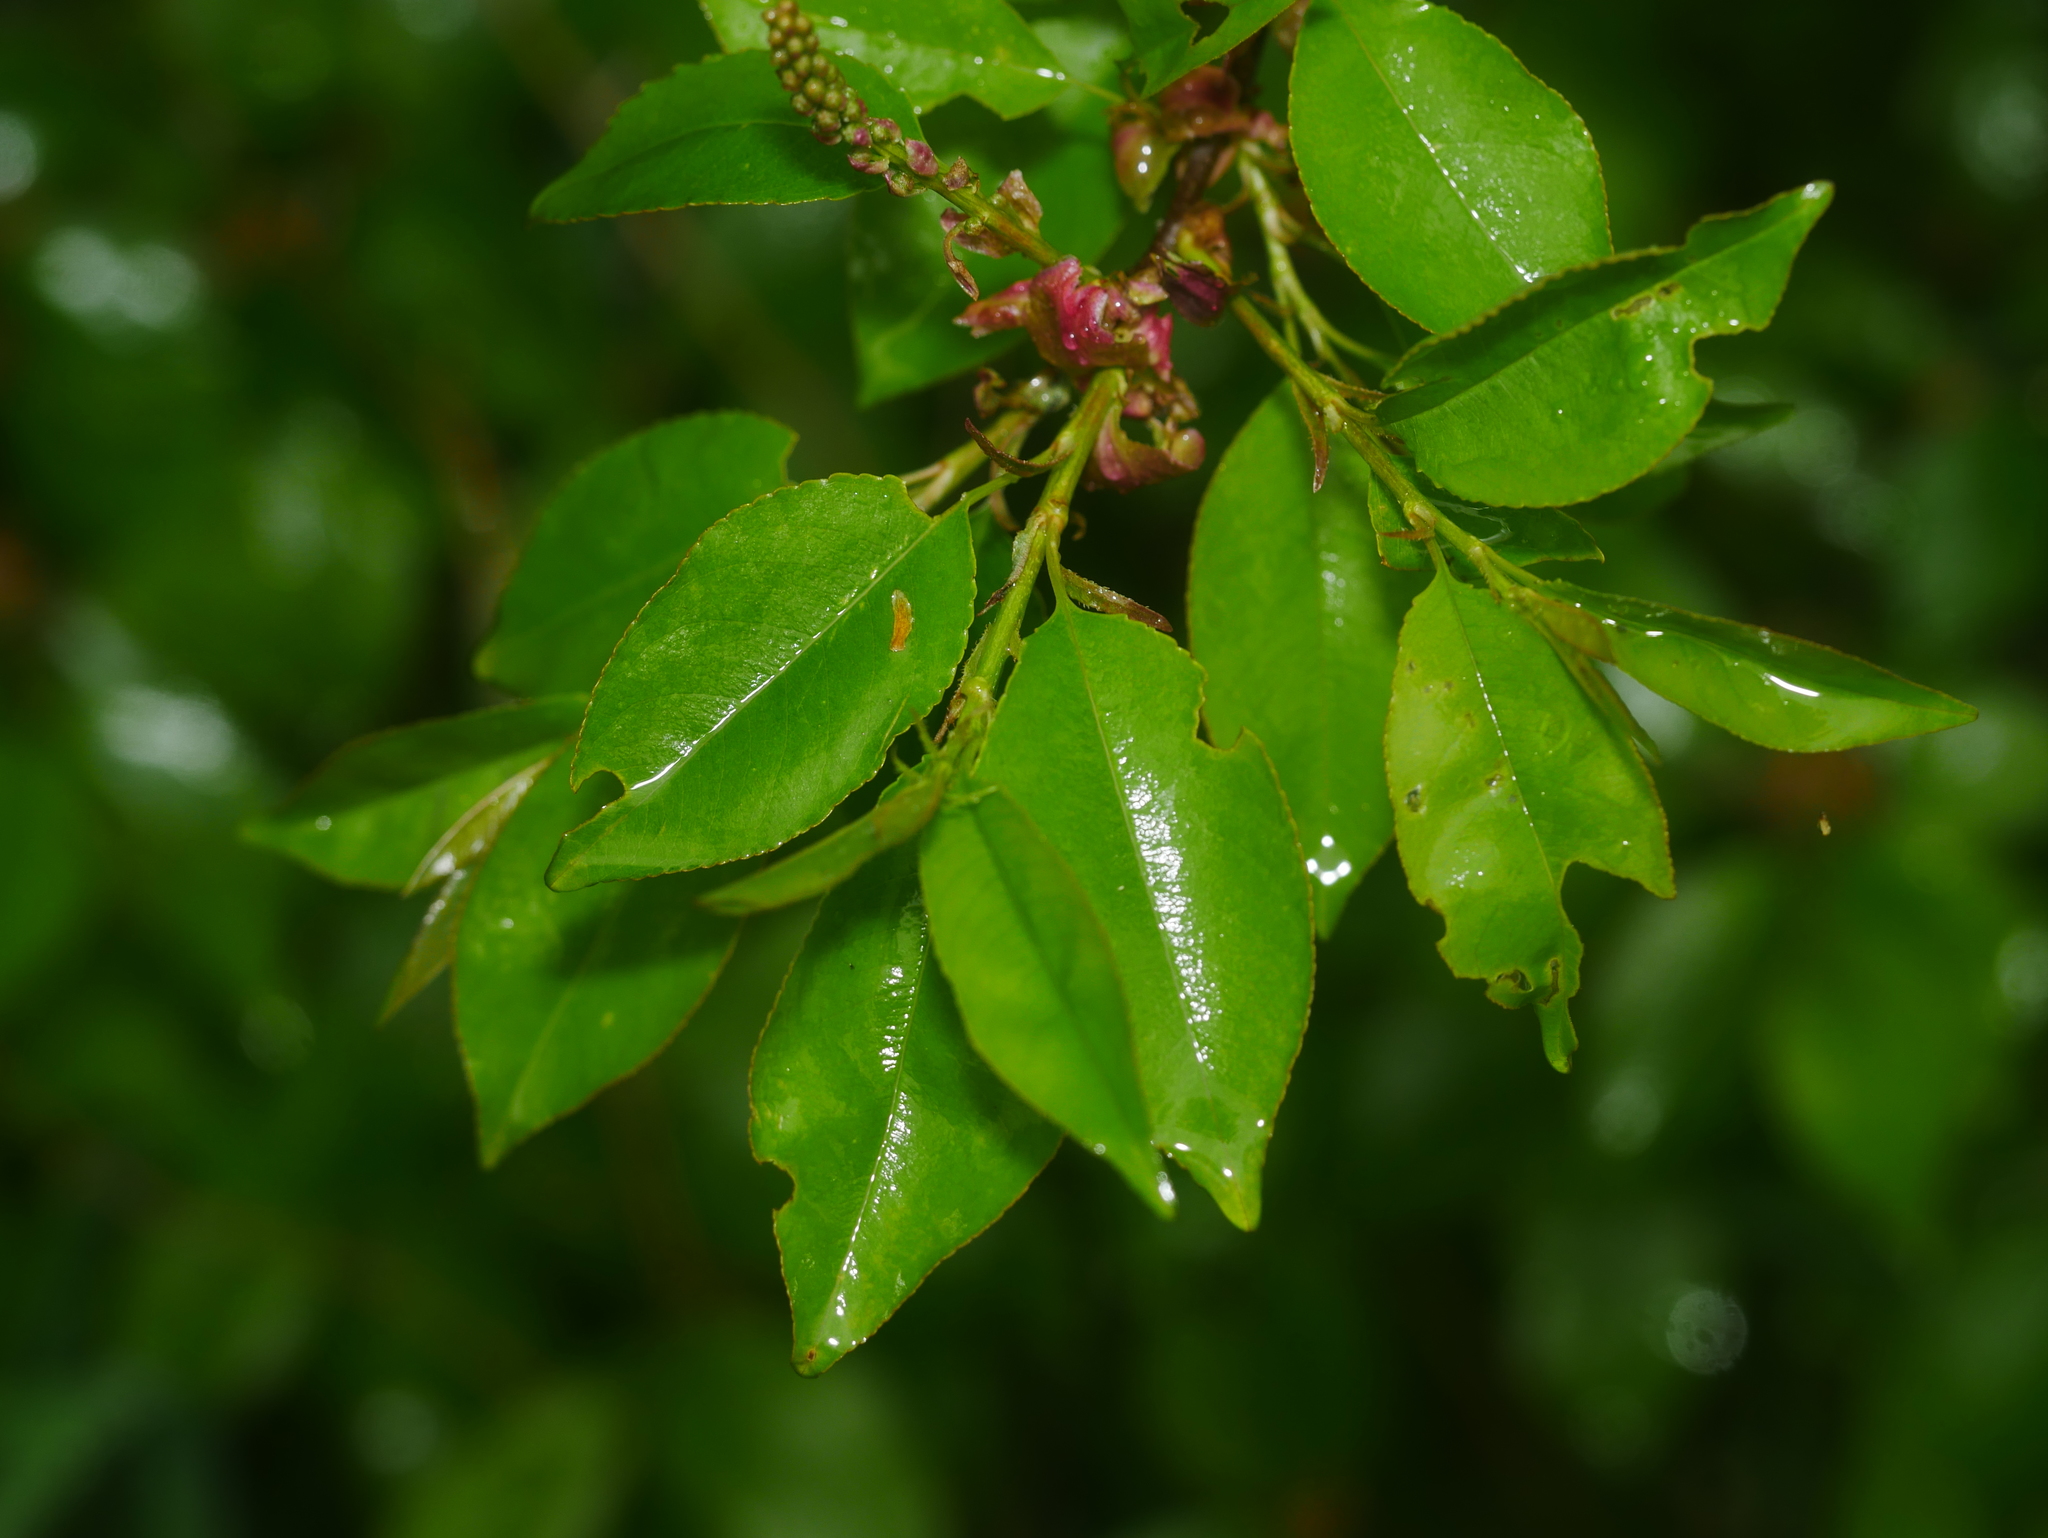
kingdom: Plantae
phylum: Tracheophyta
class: Magnoliopsida
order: Rosales
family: Rosaceae
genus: Prunus
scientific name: Prunus serotina
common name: Black cherry
